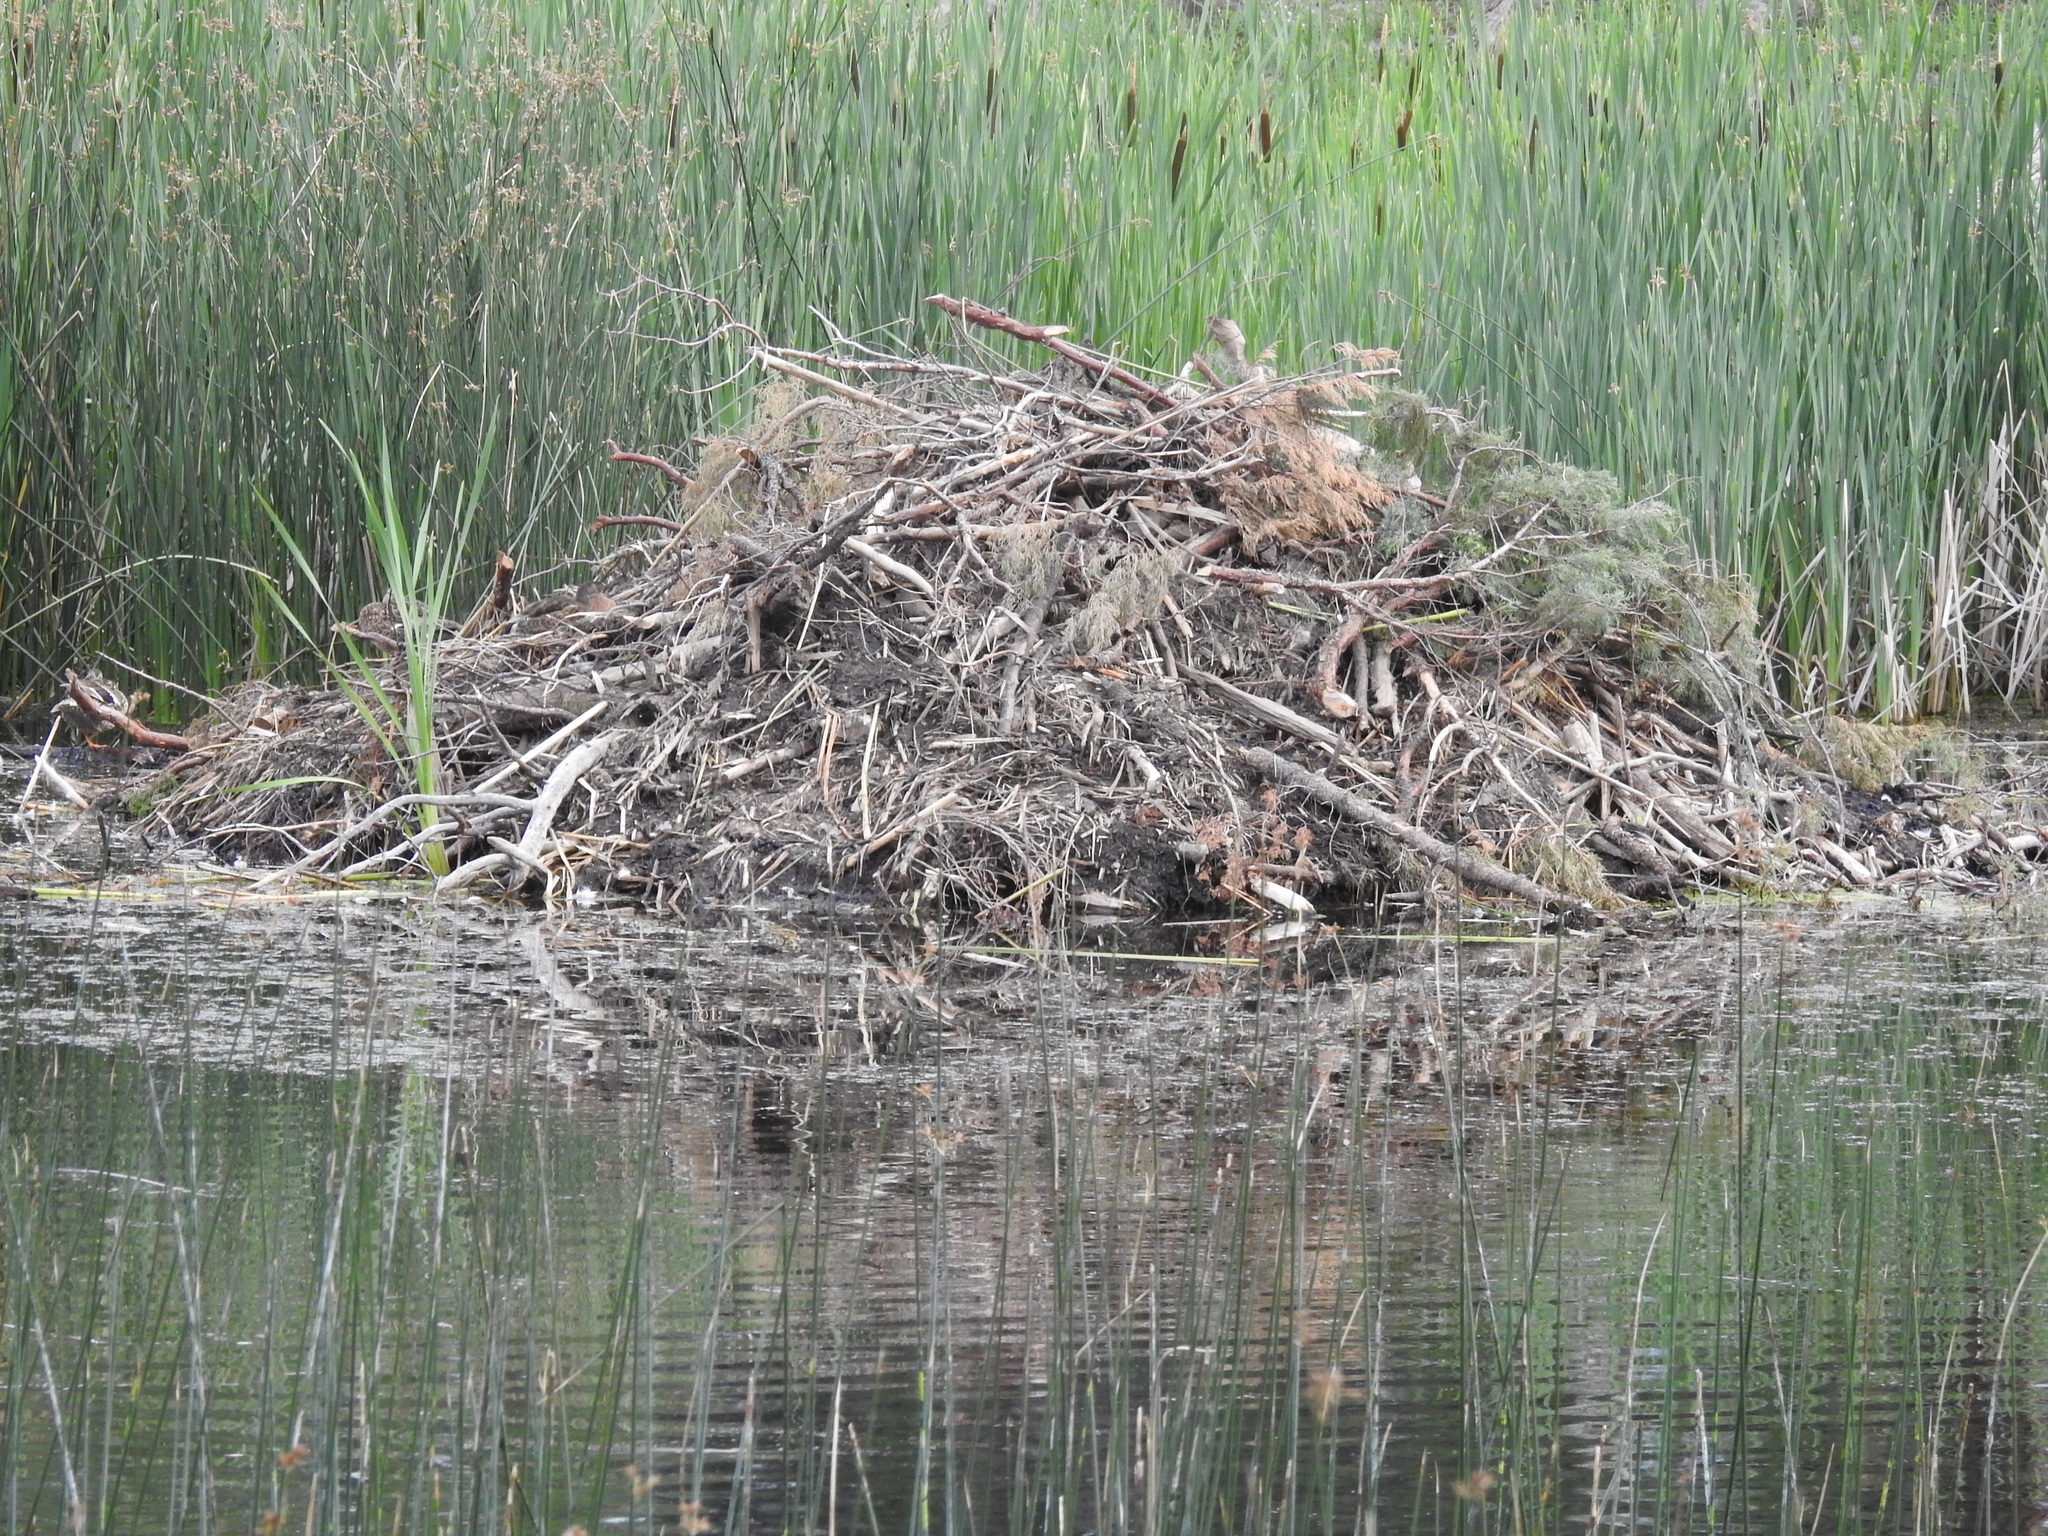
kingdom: Animalia
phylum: Chordata
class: Mammalia
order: Rodentia
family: Castoridae
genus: Castor
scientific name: Castor canadensis
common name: American beaver
